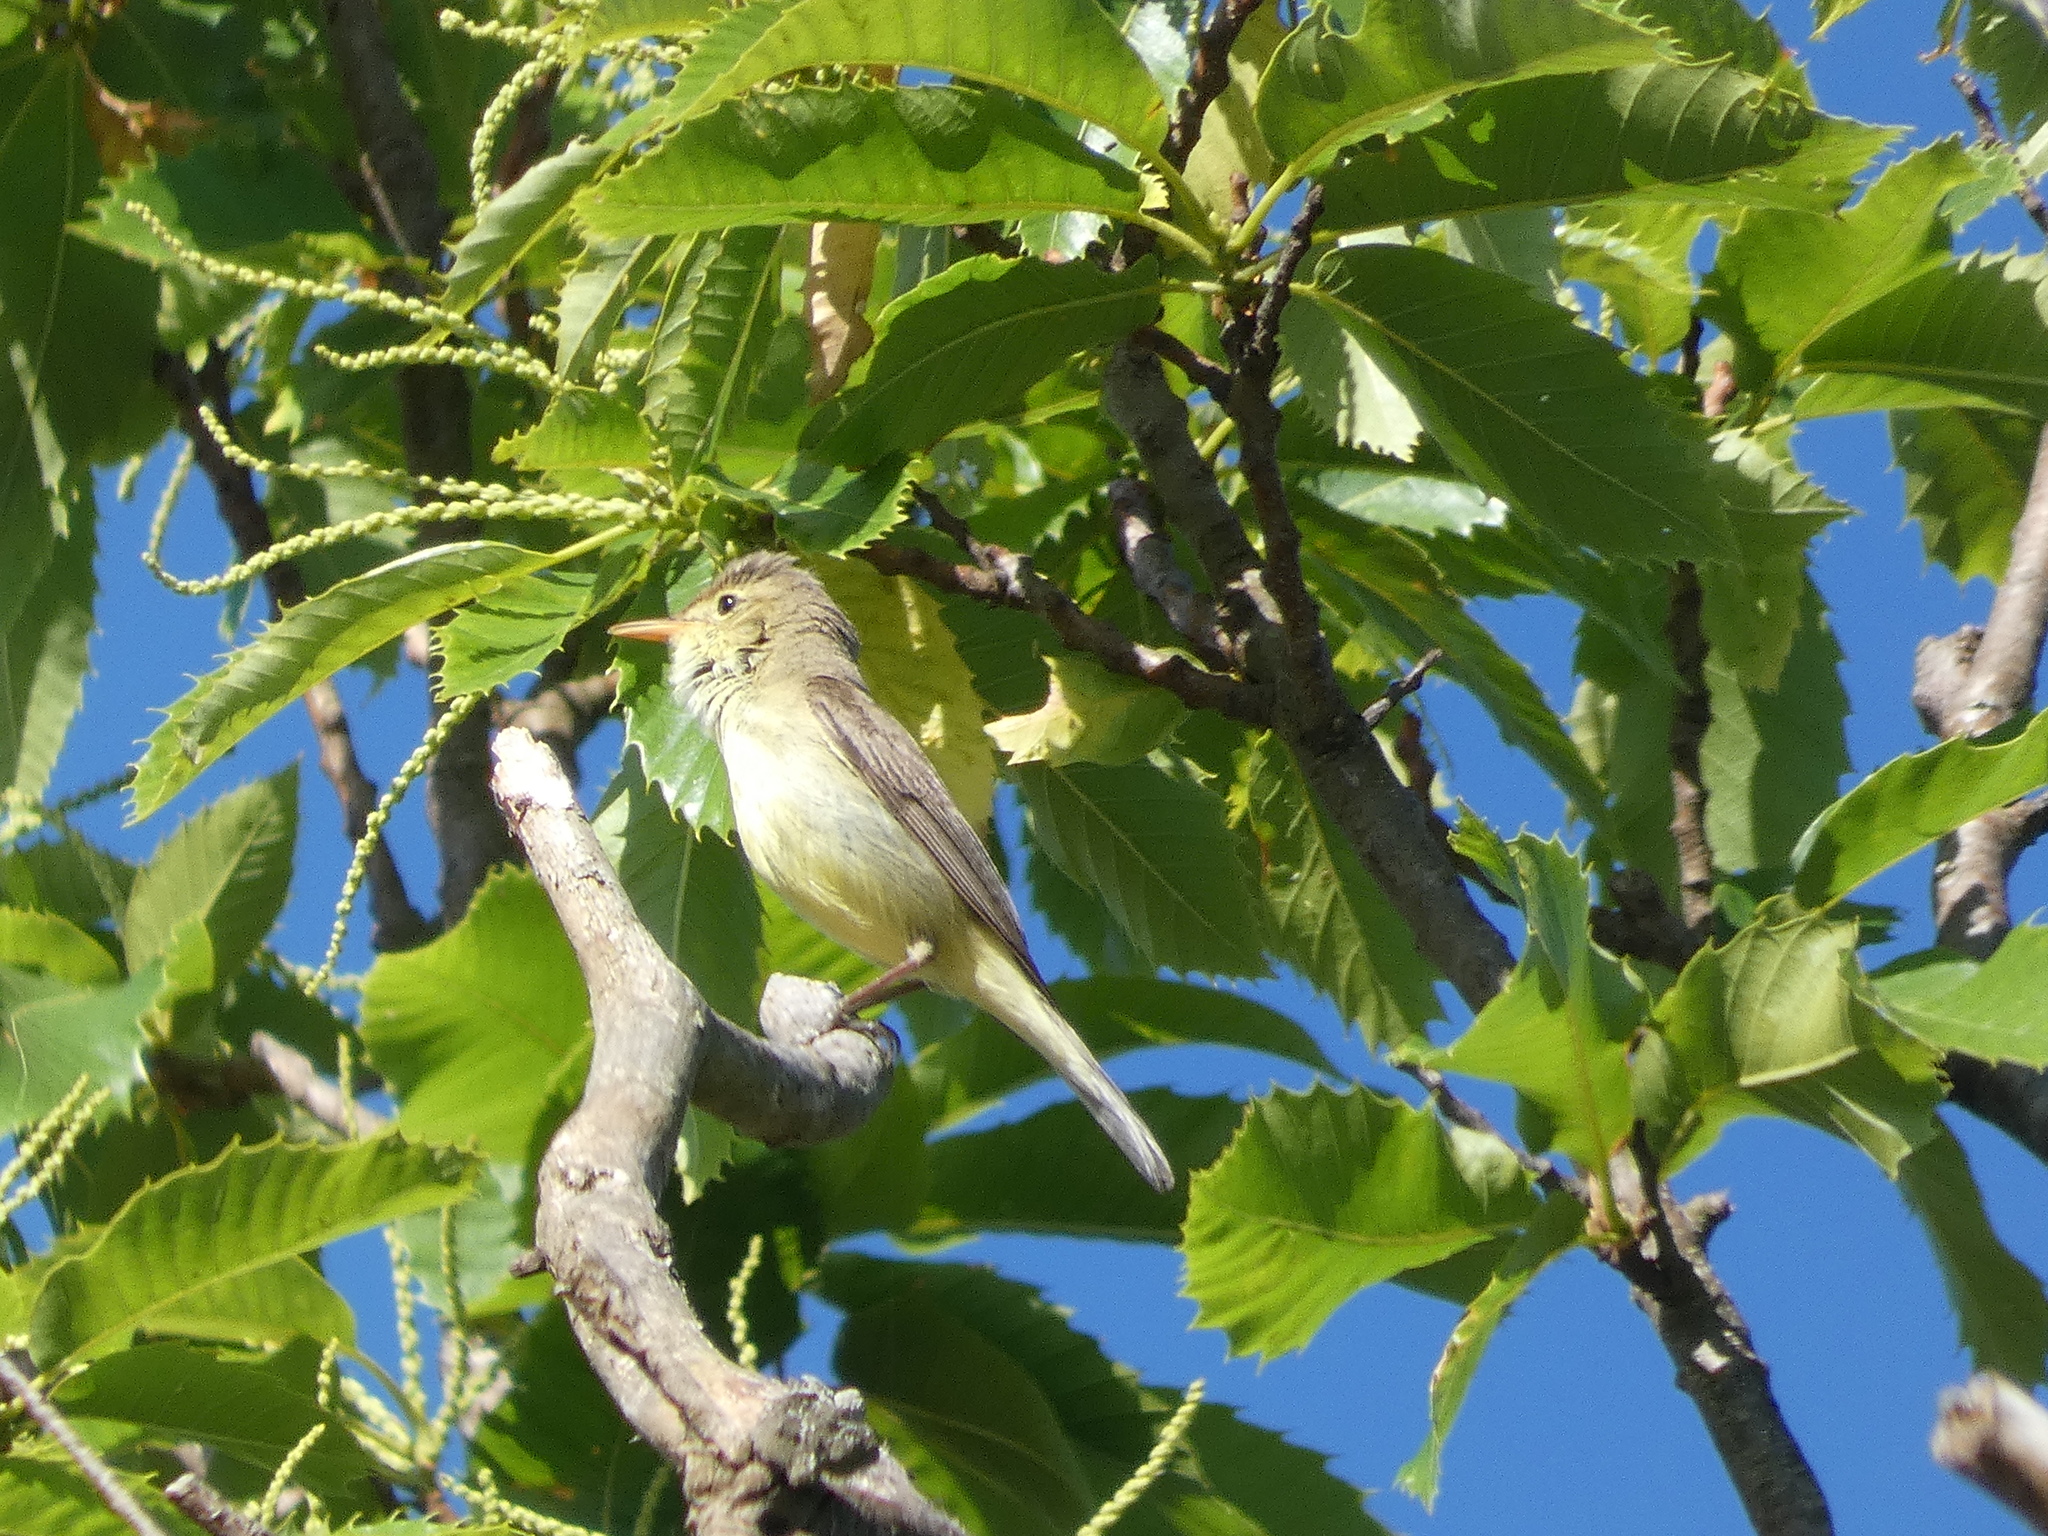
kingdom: Animalia
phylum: Chordata
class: Aves
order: Passeriformes
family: Acrocephalidae
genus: Hippolais
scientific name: Hippolais polyglotta
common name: Melodious warbler
